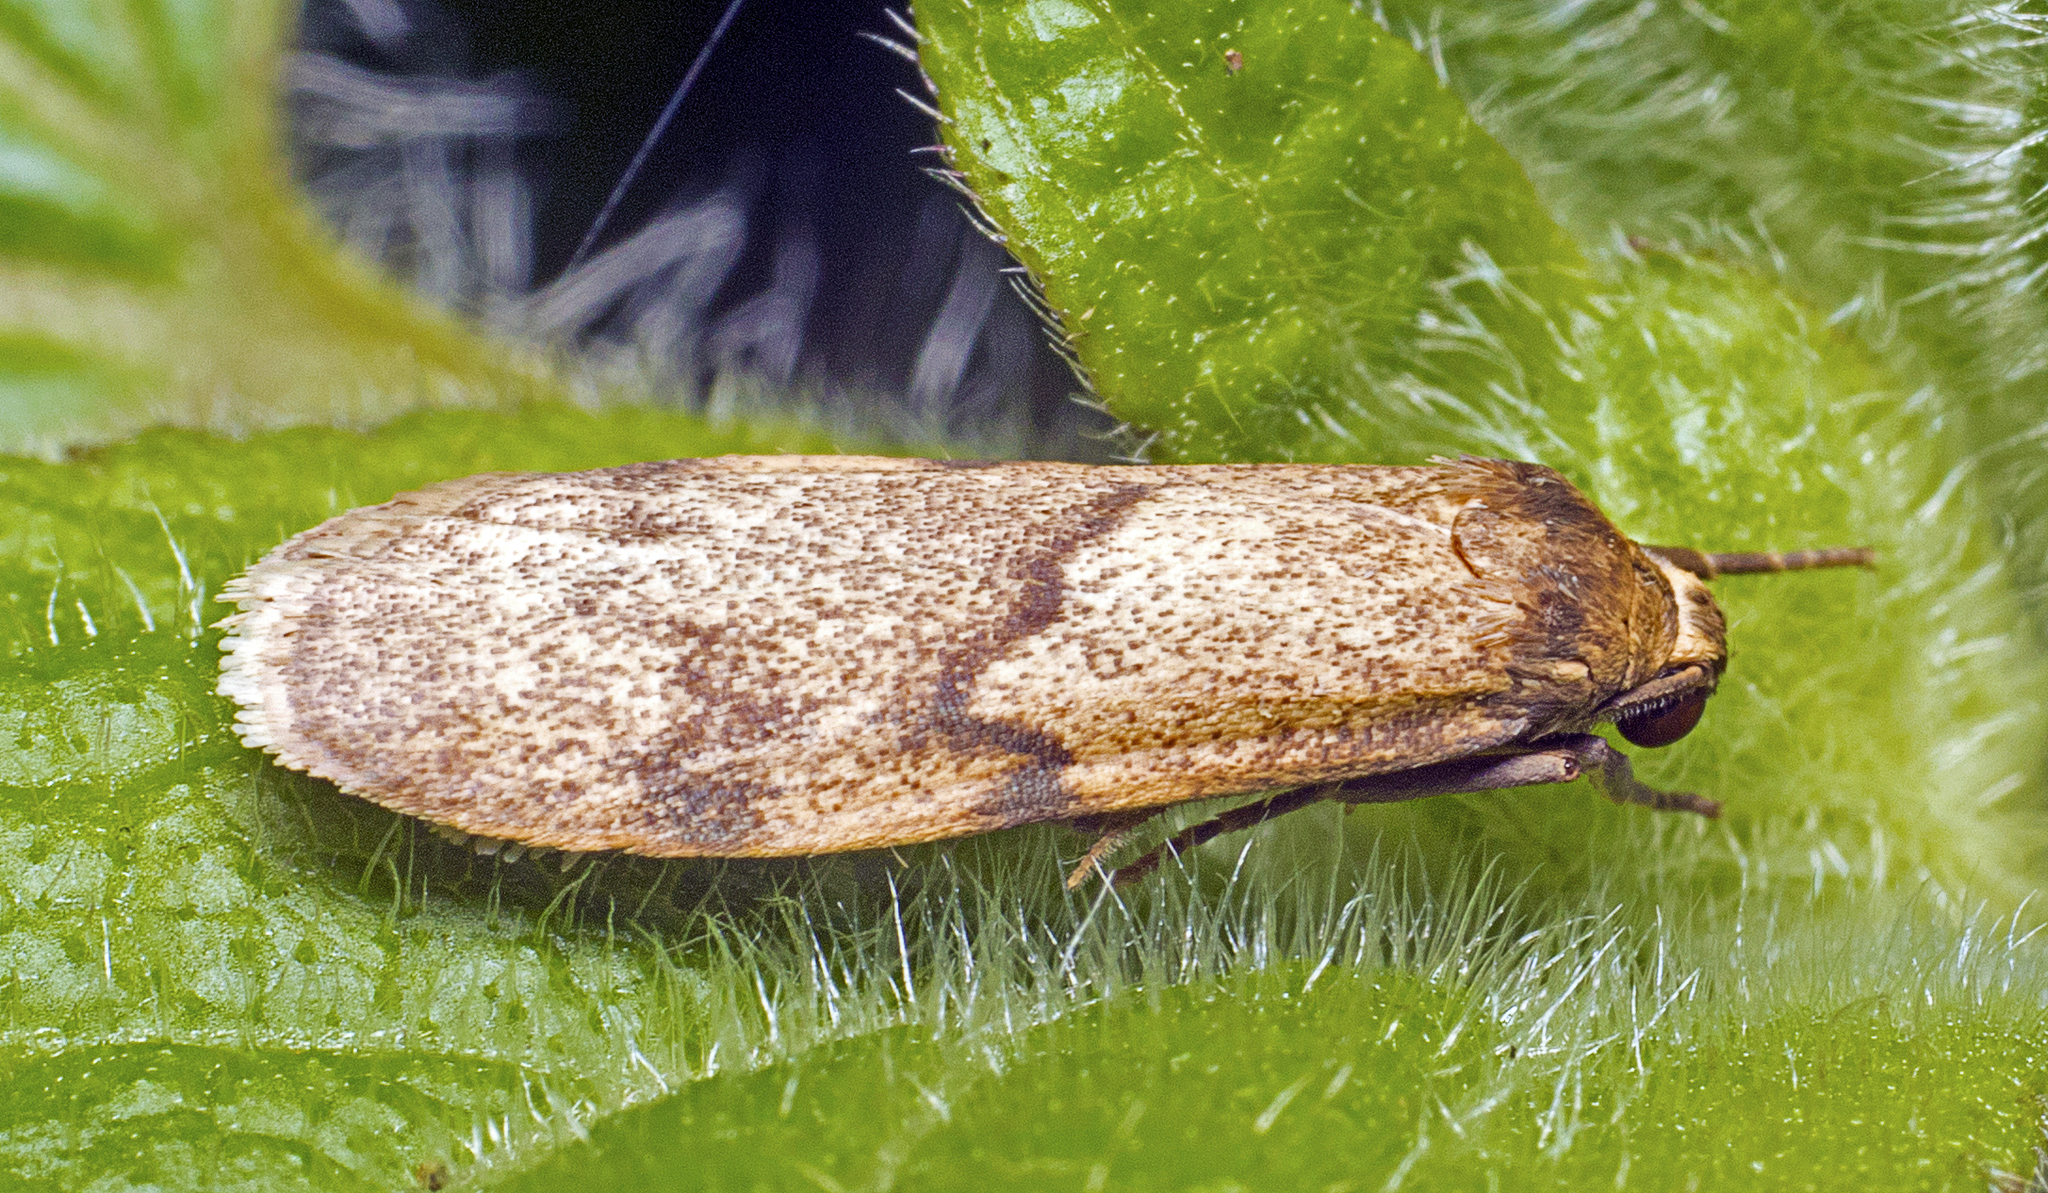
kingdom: Animalia
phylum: Arthropoda
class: Insecta
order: Lepidoptera
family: Erebidae
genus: Lambula
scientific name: Lambula transcripta
